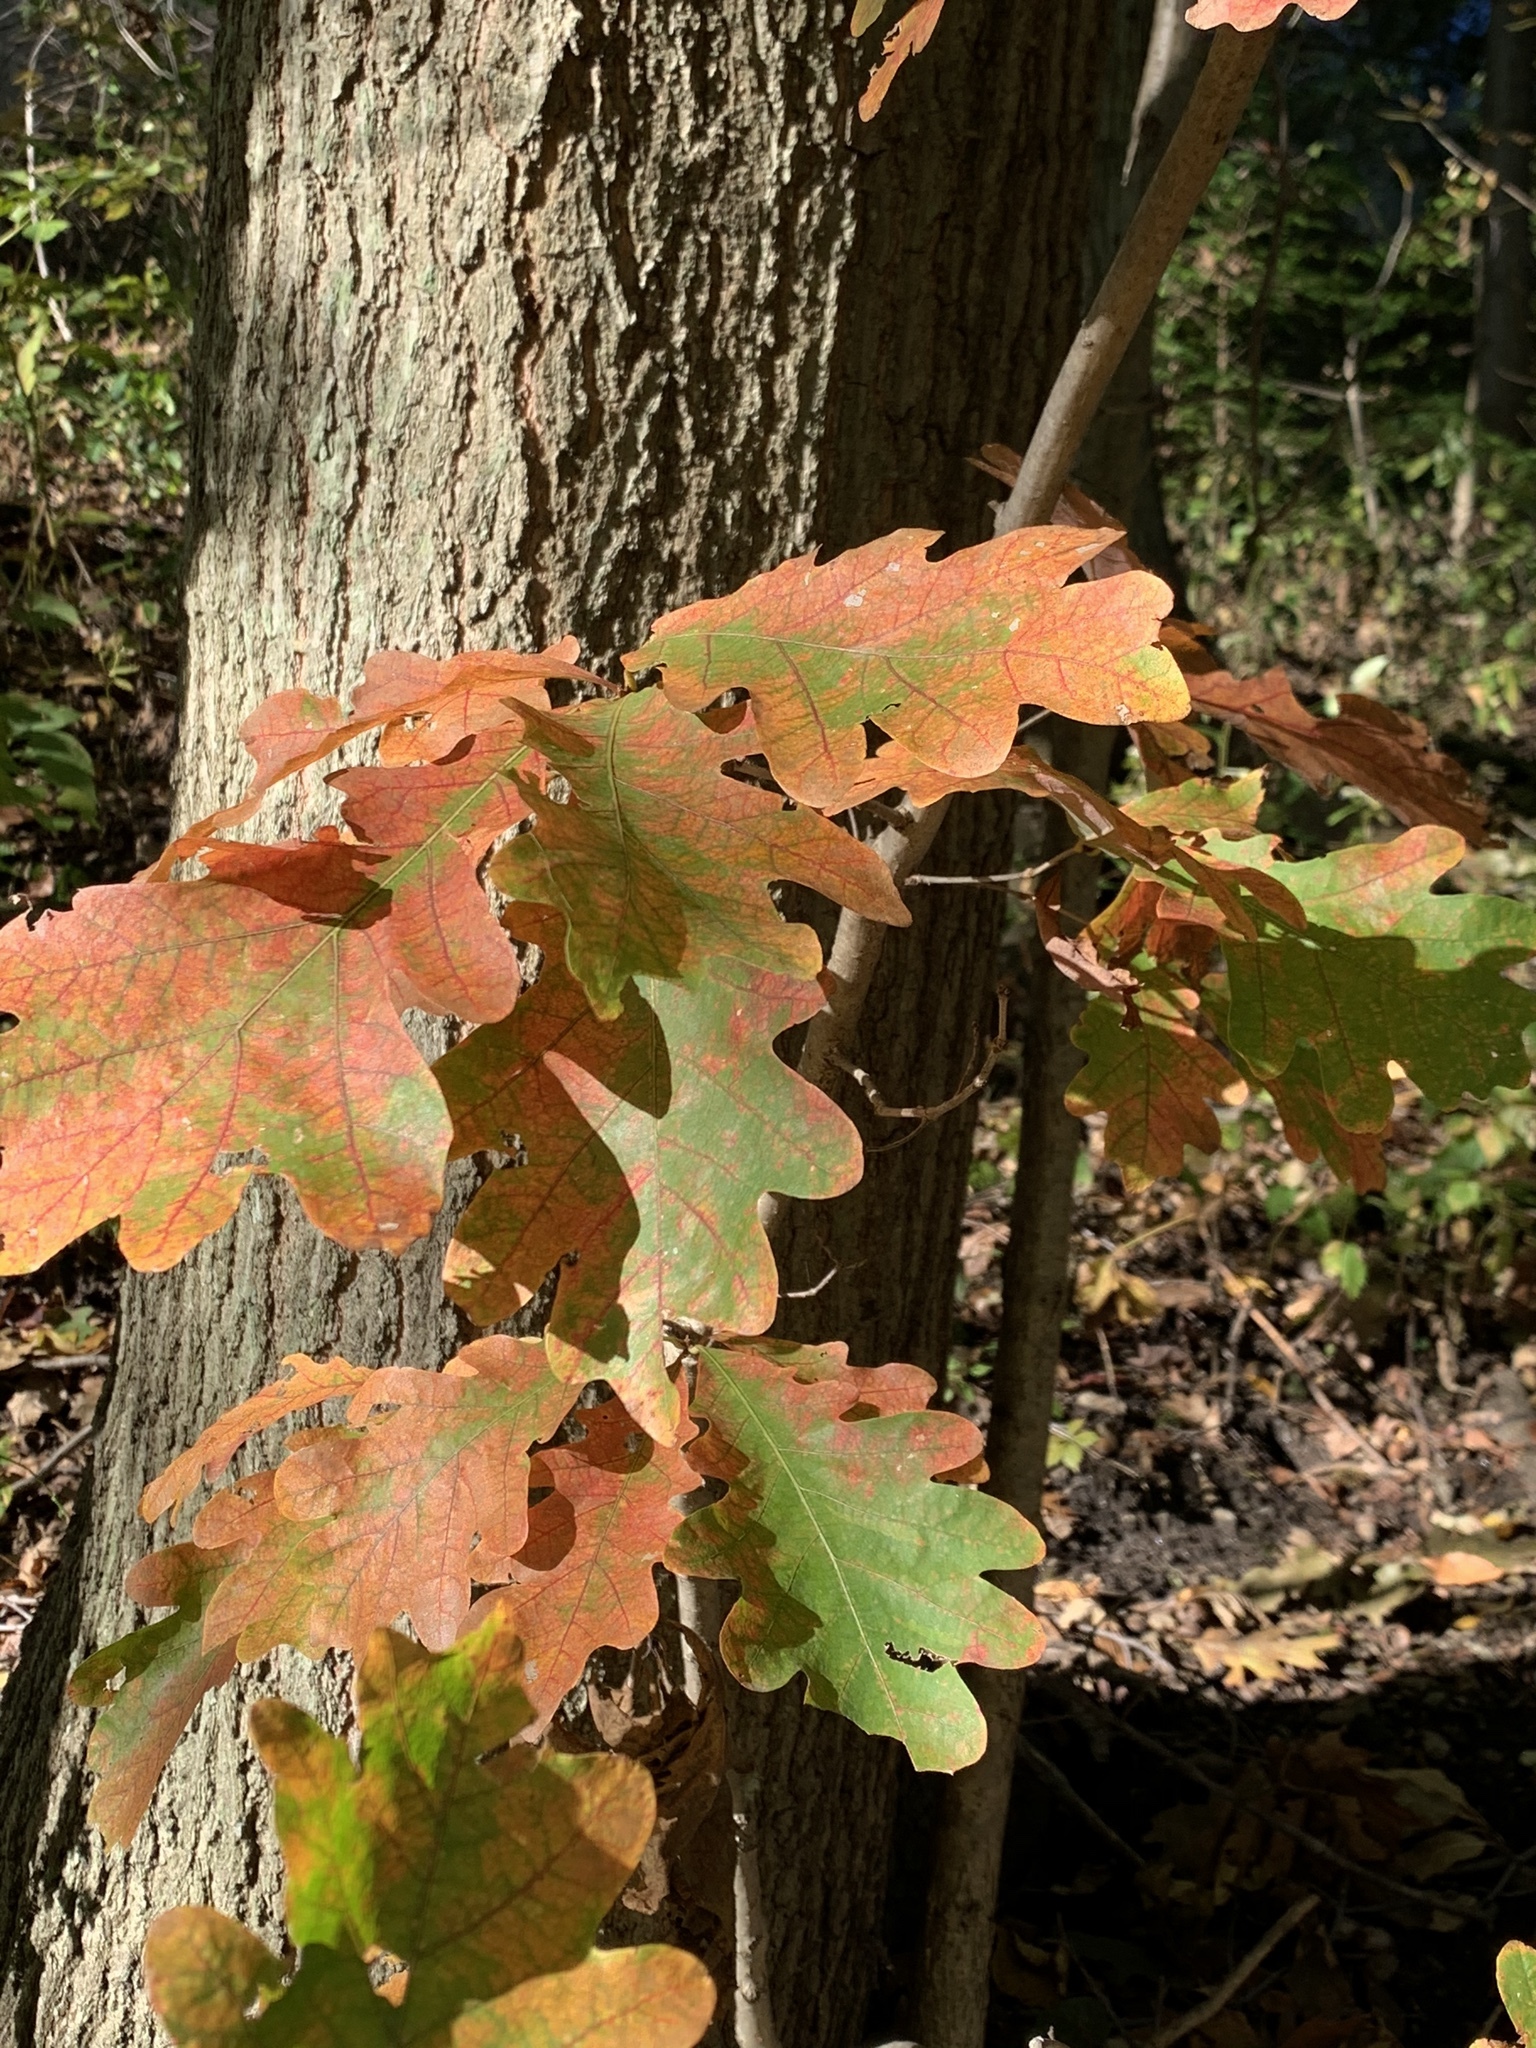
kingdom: Plantae
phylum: Tracheophyta
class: Magnoliopsida
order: Fagales
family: Fagaceae
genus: Quercus
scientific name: Quercus alba
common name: White oak
